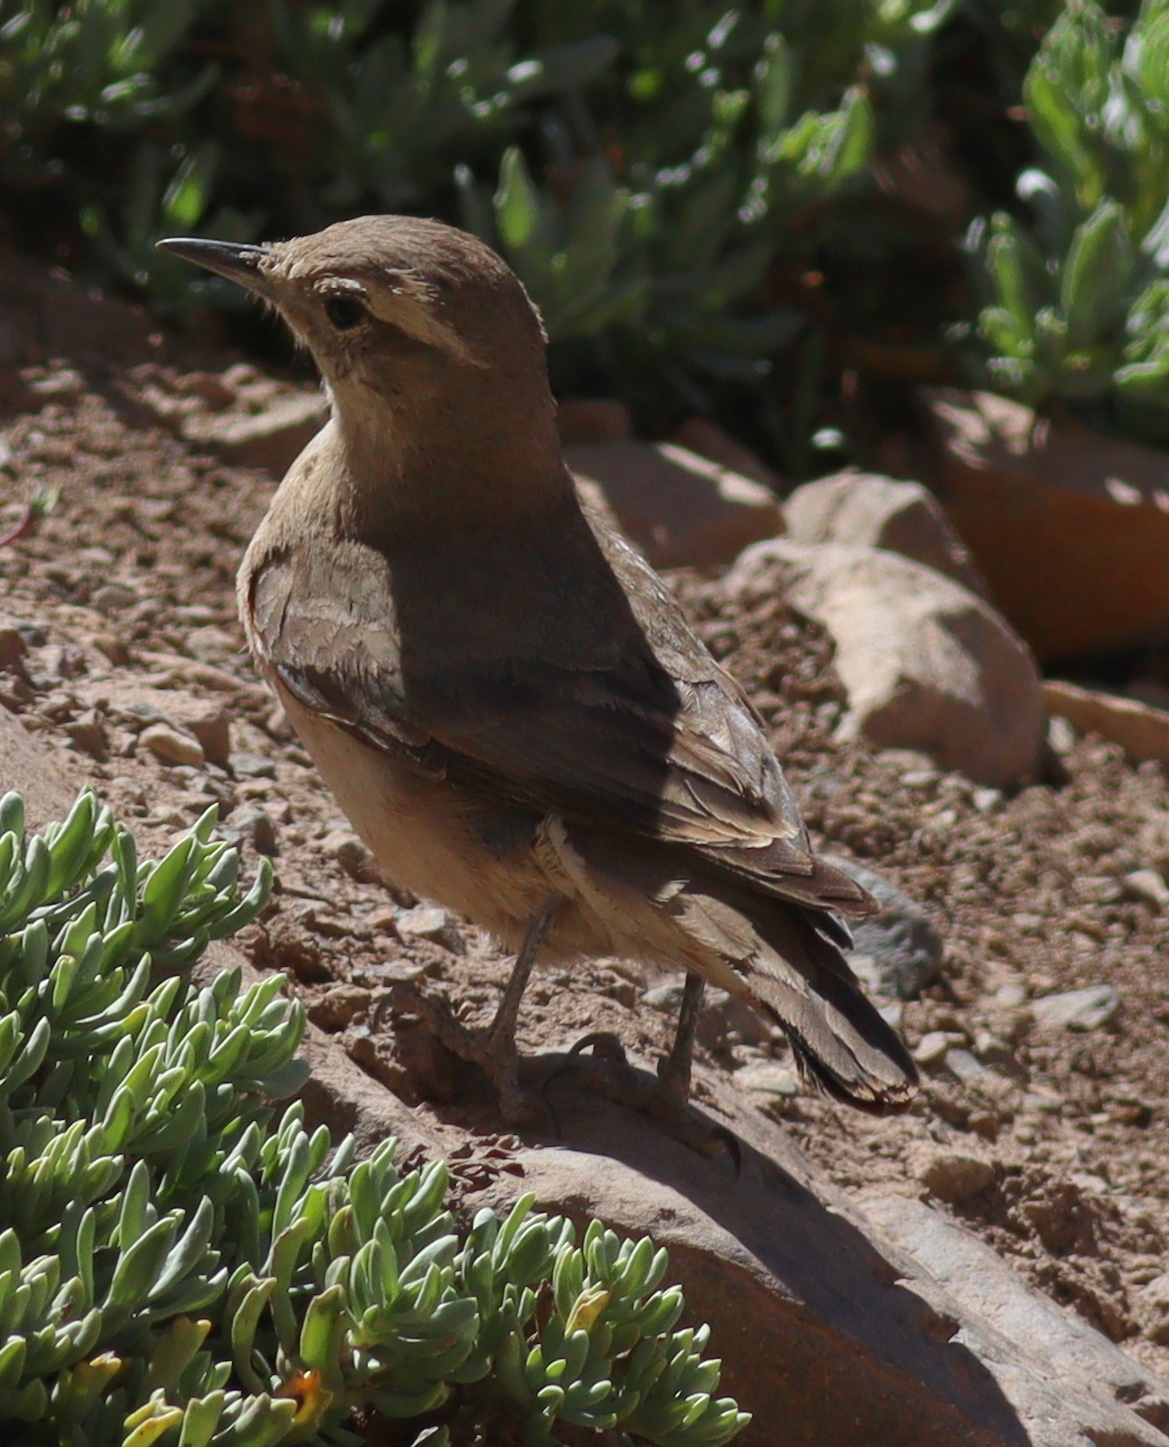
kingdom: Animalia
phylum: Chordata
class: Aves
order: Passeriformes
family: Furnariidae
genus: Geositta
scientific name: Geositta rufipennis
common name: Rufous-banded miner
